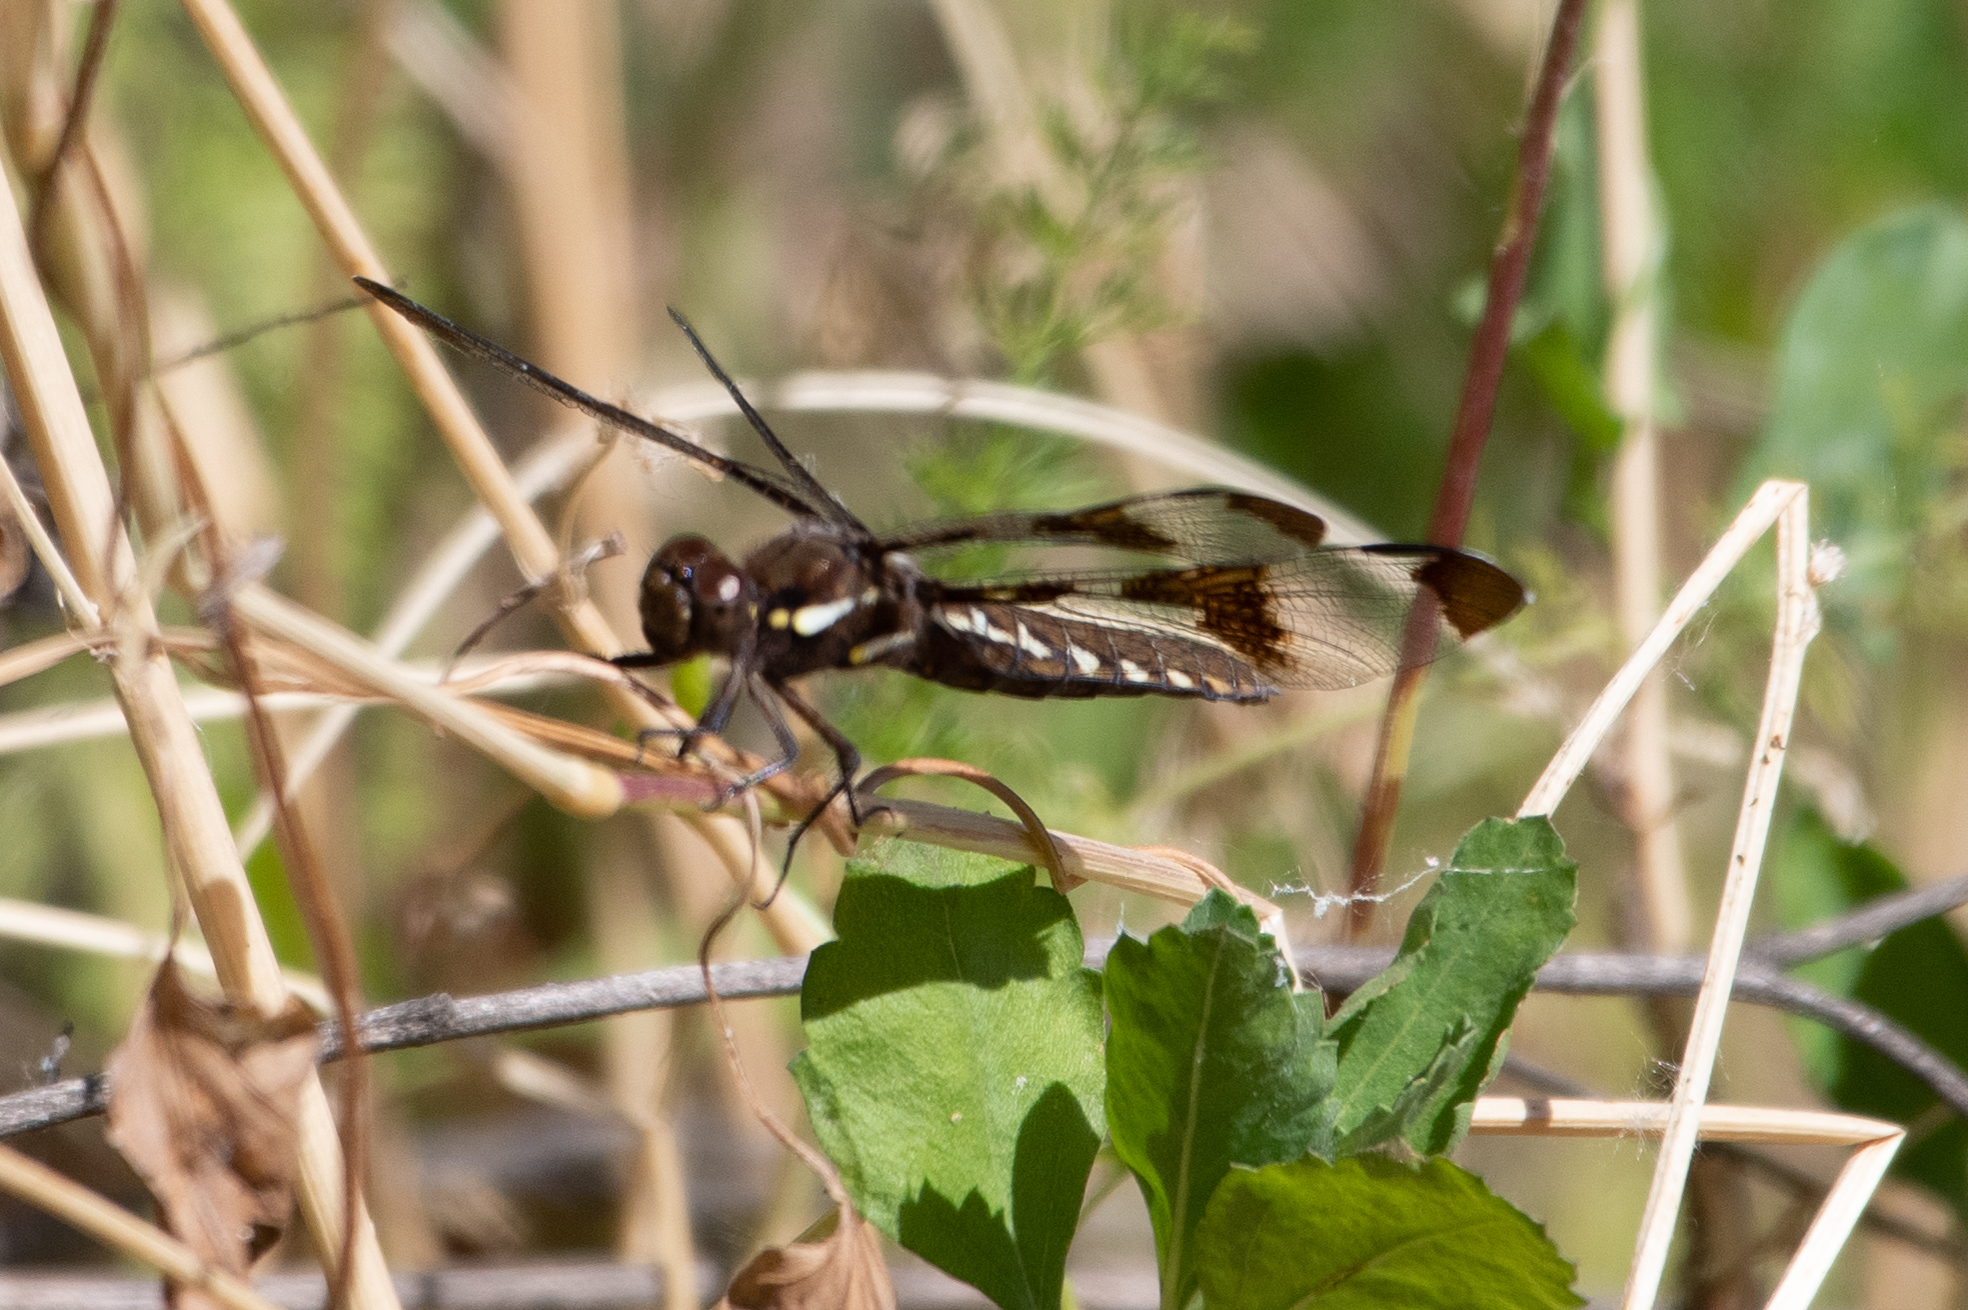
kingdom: Animalia
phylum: Arthropoda
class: Insecta
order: Odonata
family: Libellulidae
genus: Plathemis
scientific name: Plathemis lydia
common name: Common whitetail
